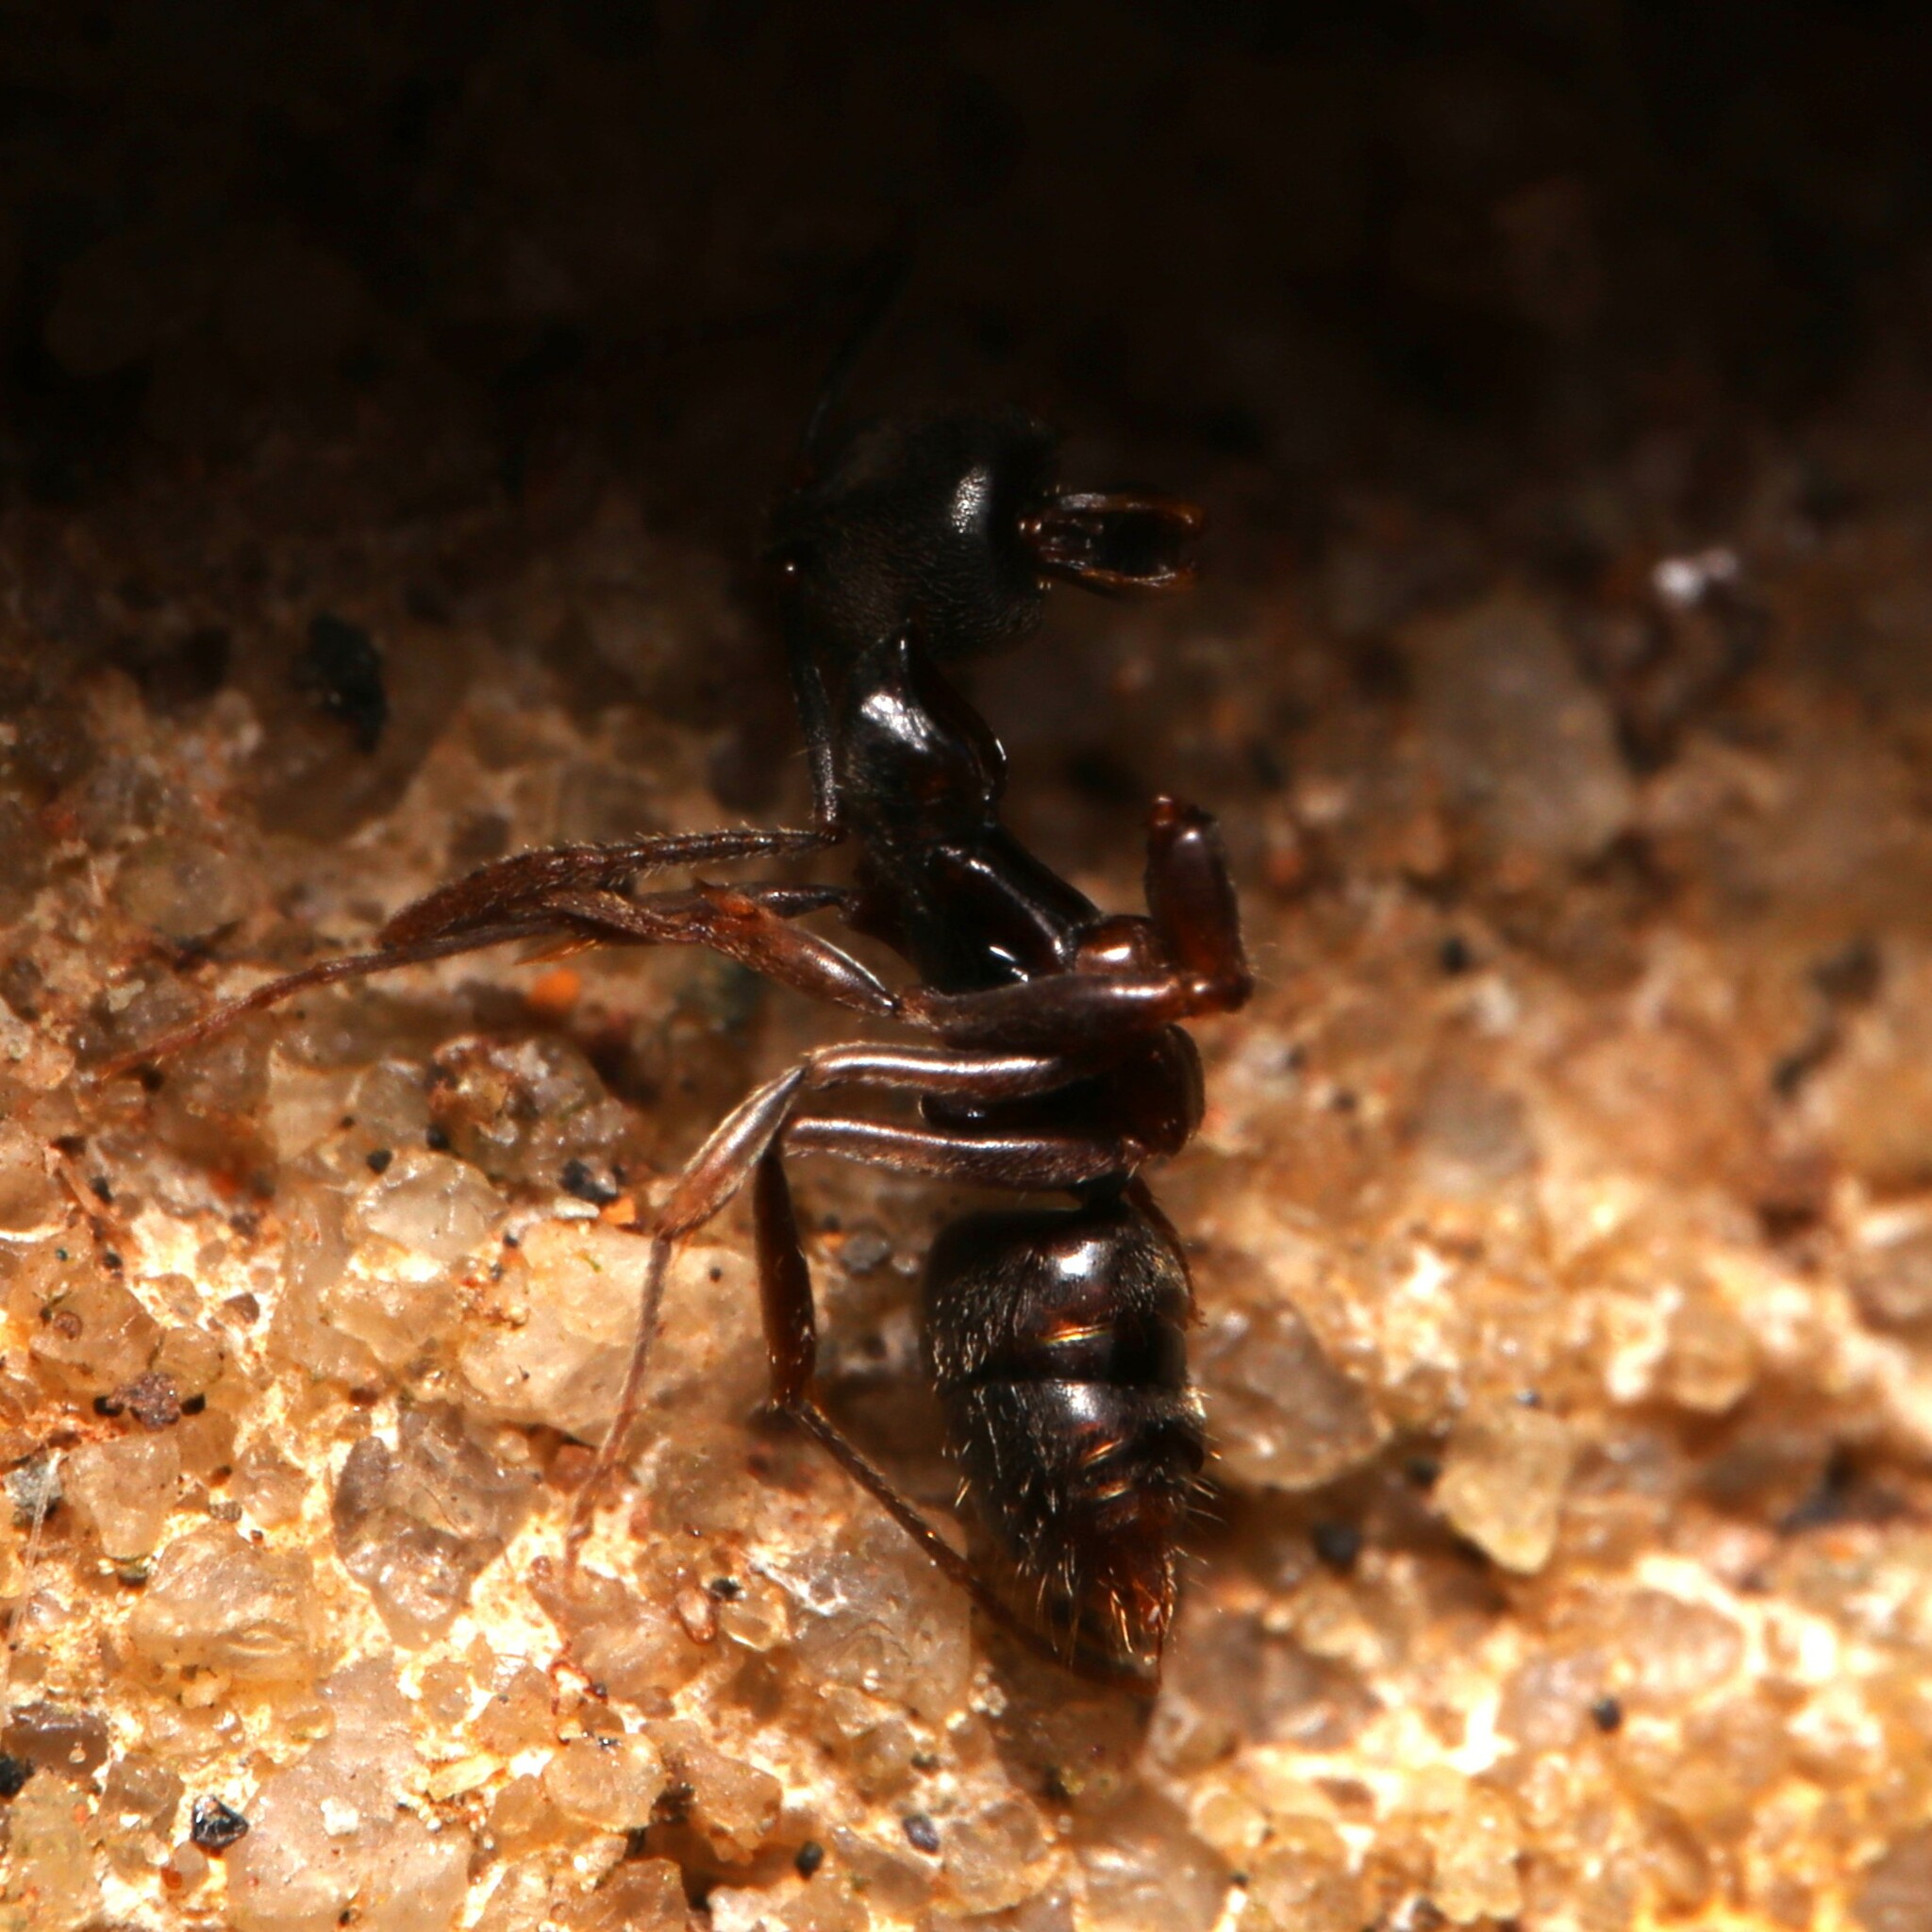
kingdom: Animalia
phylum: Arthropoda
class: Insecta
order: Hymenoptera
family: Formicidae
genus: Pachycondyla
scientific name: Pachycondyla chinensis
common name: Asian needle ant
